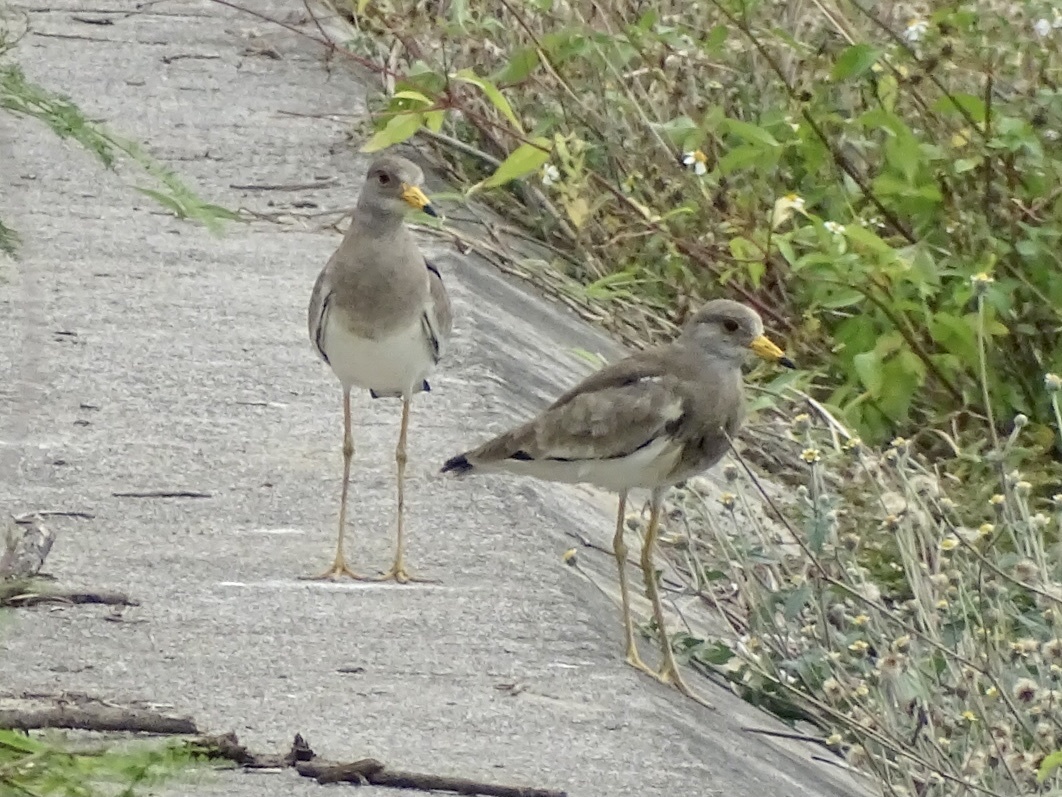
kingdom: Animalia
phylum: Chordata
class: Aves
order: Charadriiformes
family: Charadriidae
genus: Vanellus
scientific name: Vanellus cinereus
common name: Grey-headed lapwing
